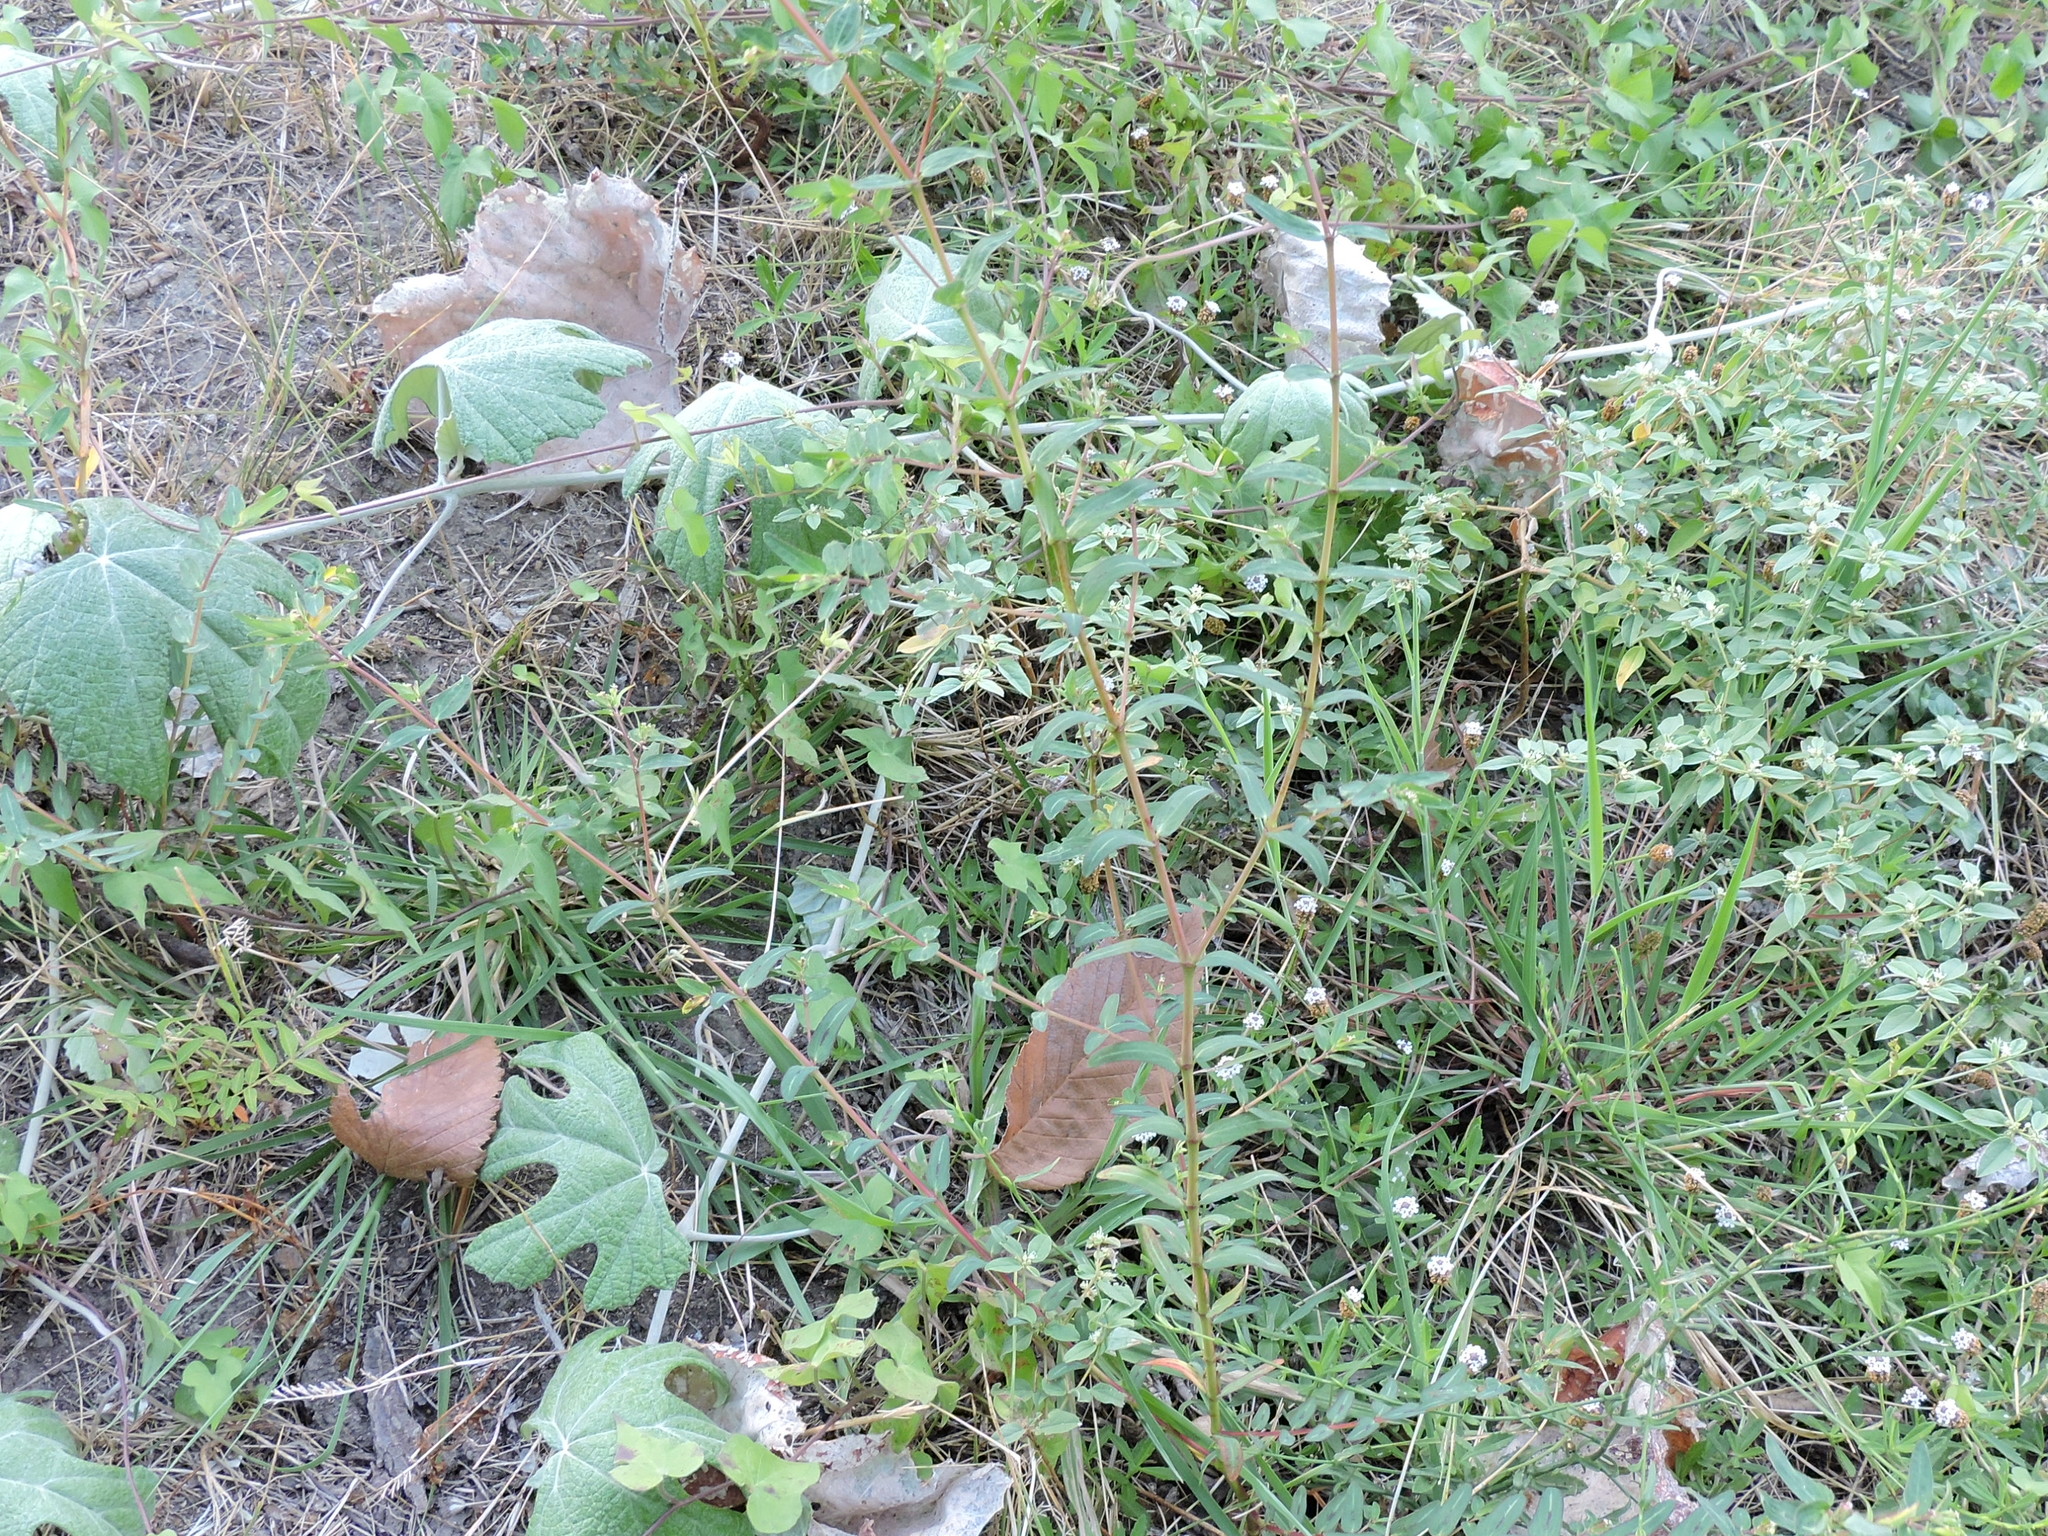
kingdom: Plantae
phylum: Tracheophyta
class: Magnoliopsida
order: Malpighiales
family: Euphorbiaceae
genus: Euphorbia
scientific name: Euphorbia nutans
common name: Eyebane
